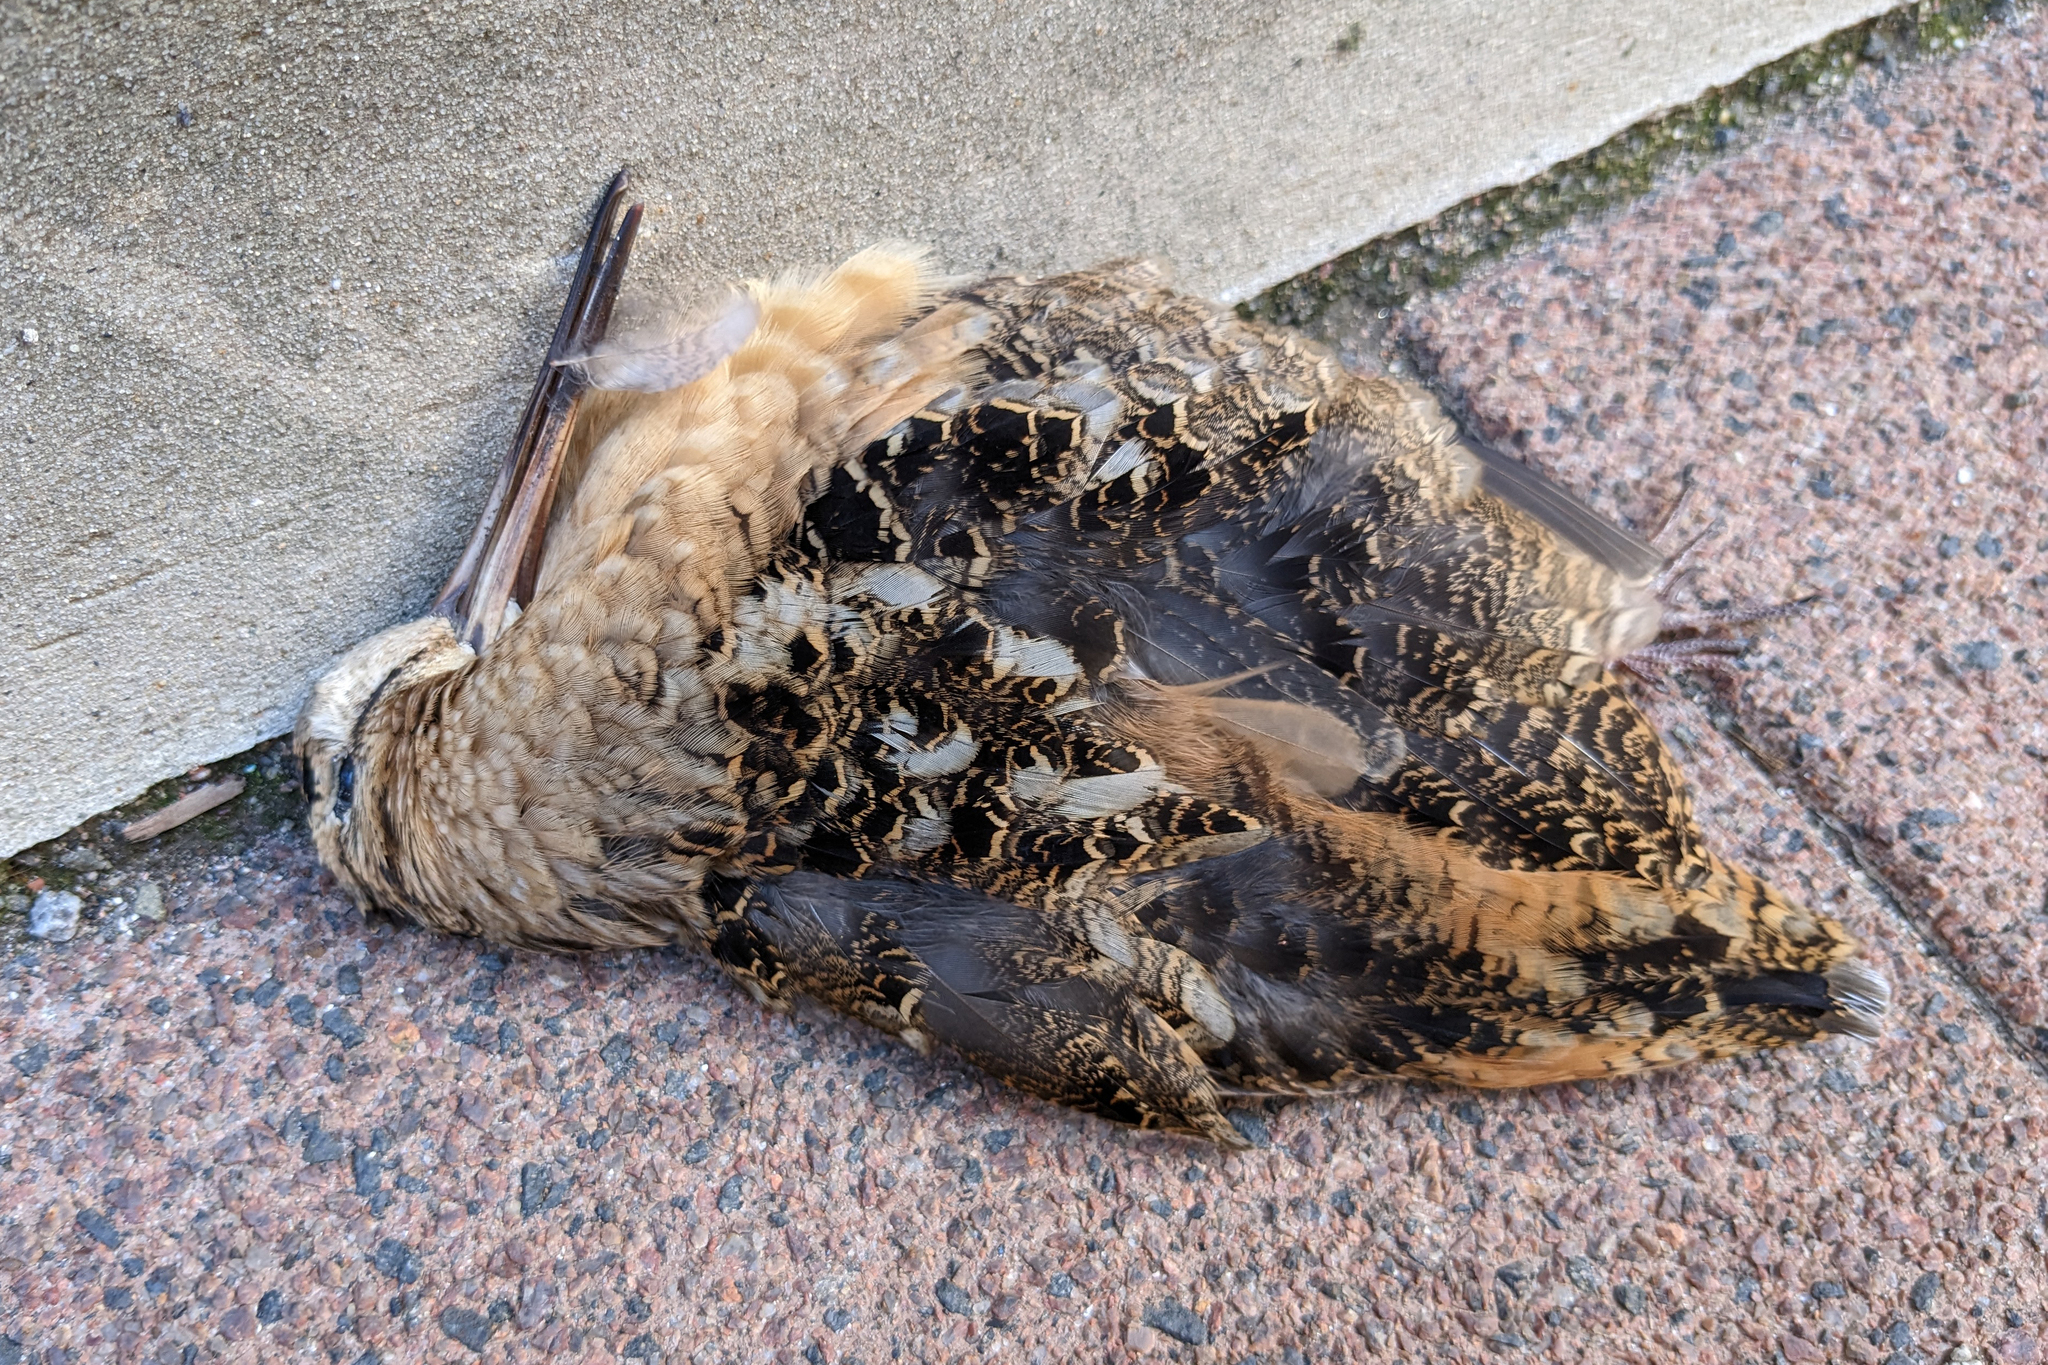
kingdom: Animalia
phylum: Chordata
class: Aves
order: Charadriiformes
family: Scolopacidae
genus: Scolopax
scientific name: Scolopax minor
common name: American woodcock
